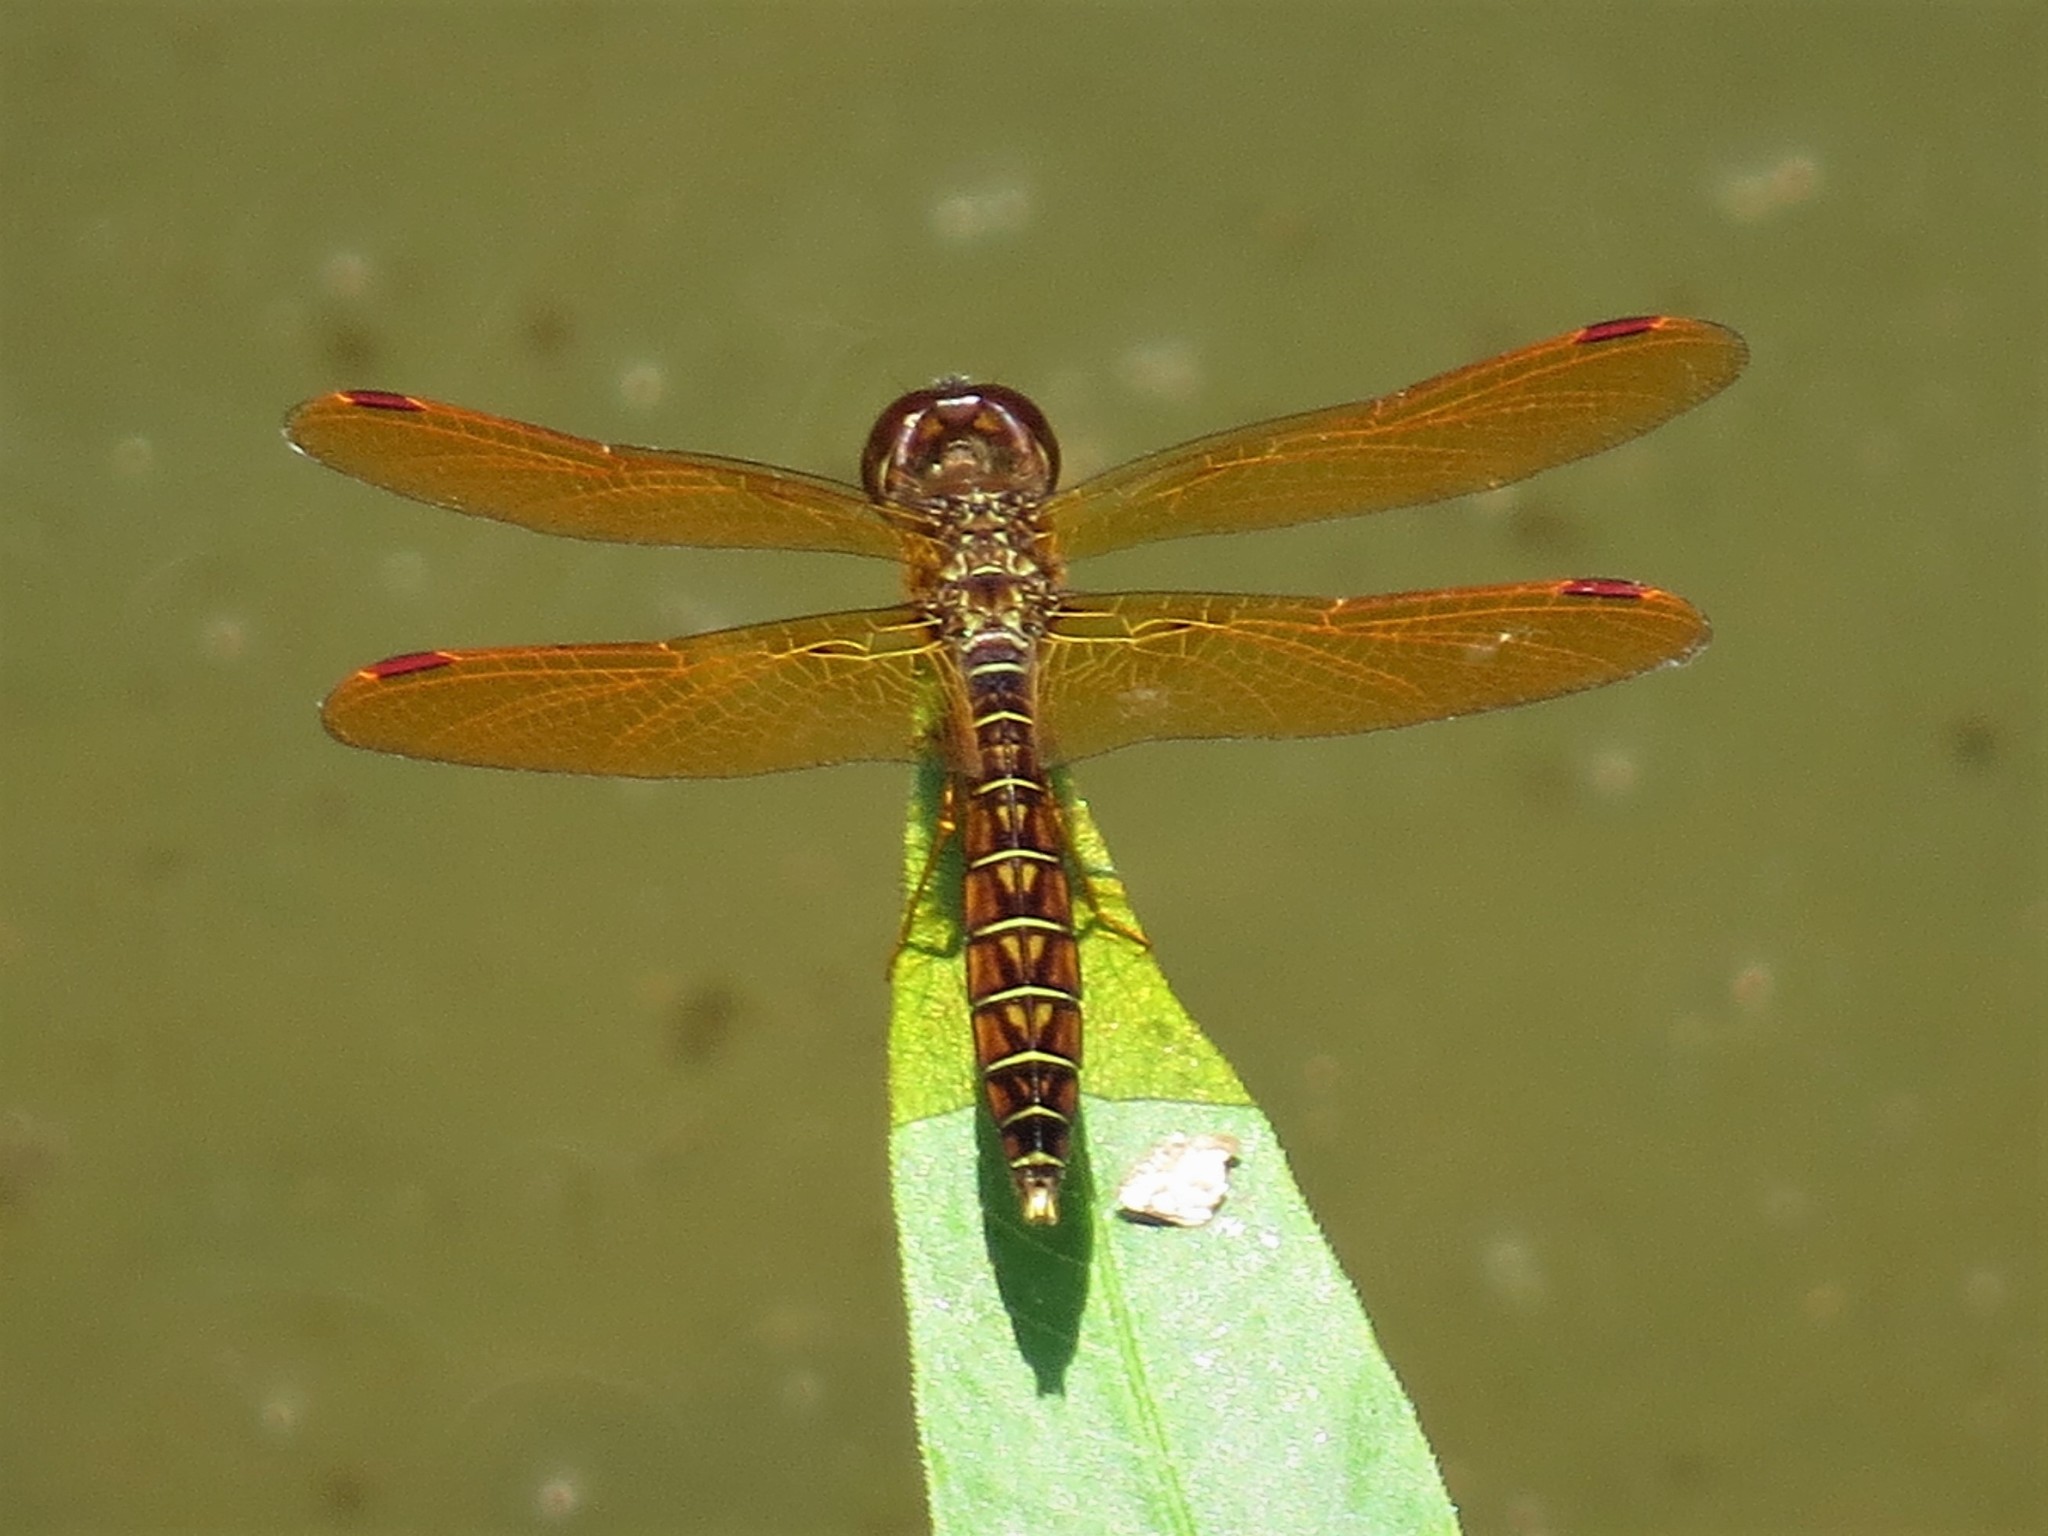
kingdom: Animalia
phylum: Arthropoda
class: Insecta
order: Odonata
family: Libellulidae
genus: Perithemis
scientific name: Perithemis tenera
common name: Eastern amberwing
